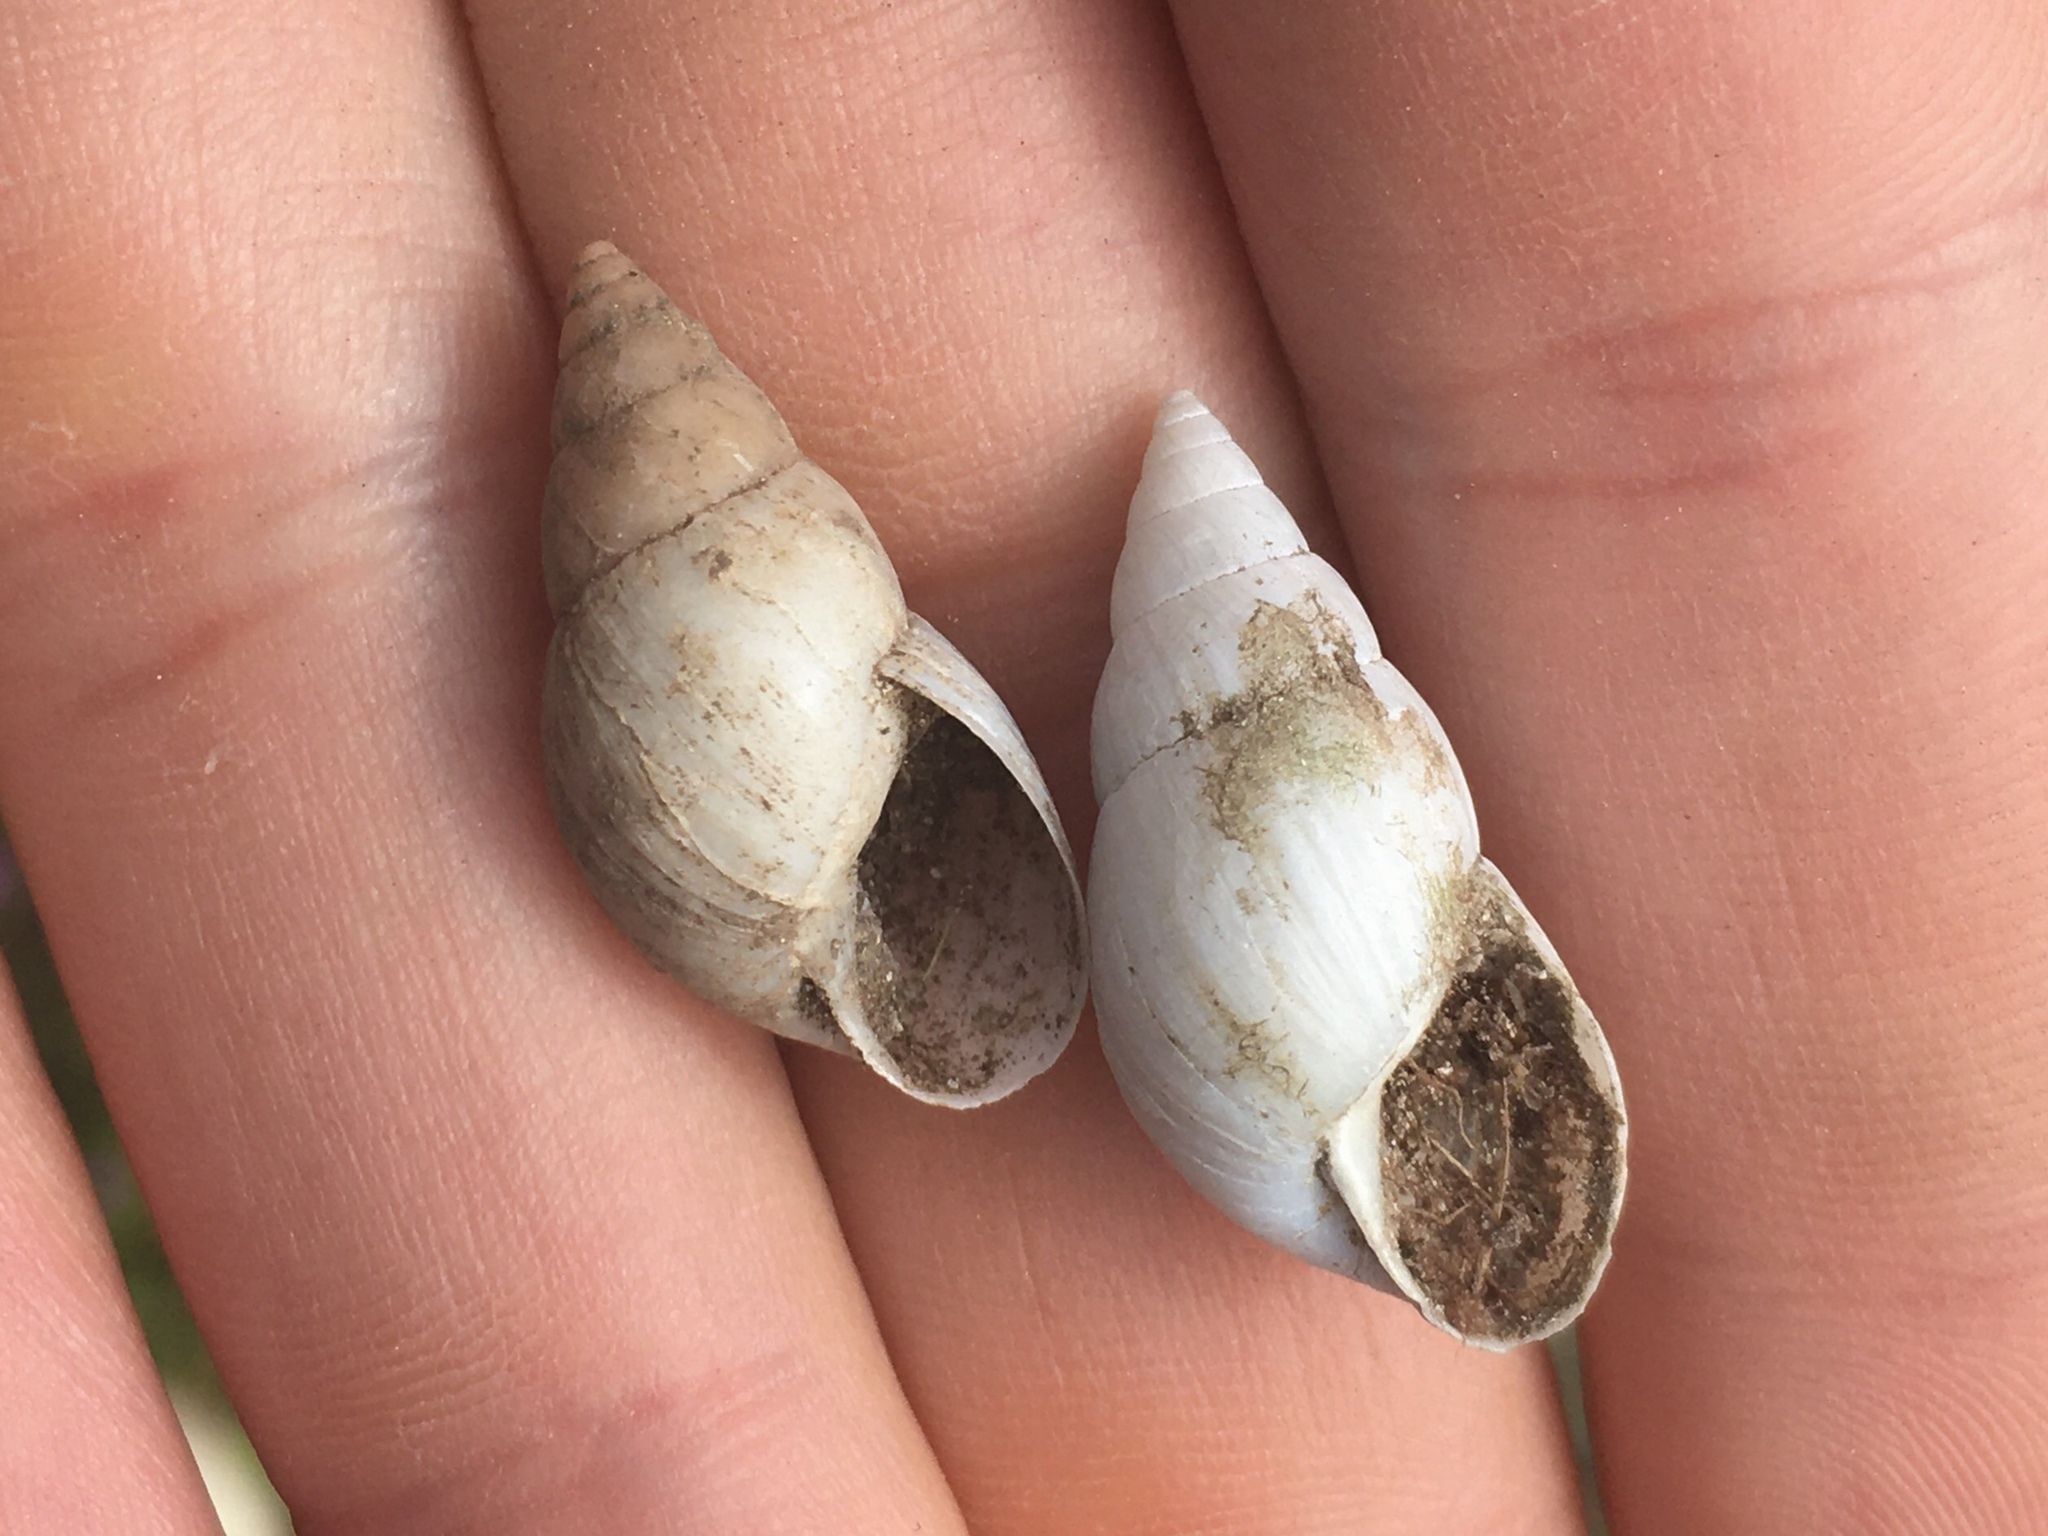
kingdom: Animalia
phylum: Mollusca
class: Gastropoda
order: Stylommatophora
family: Bulimulidae
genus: Bulimulus
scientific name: Bulimulus bonariensis
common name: Snail
